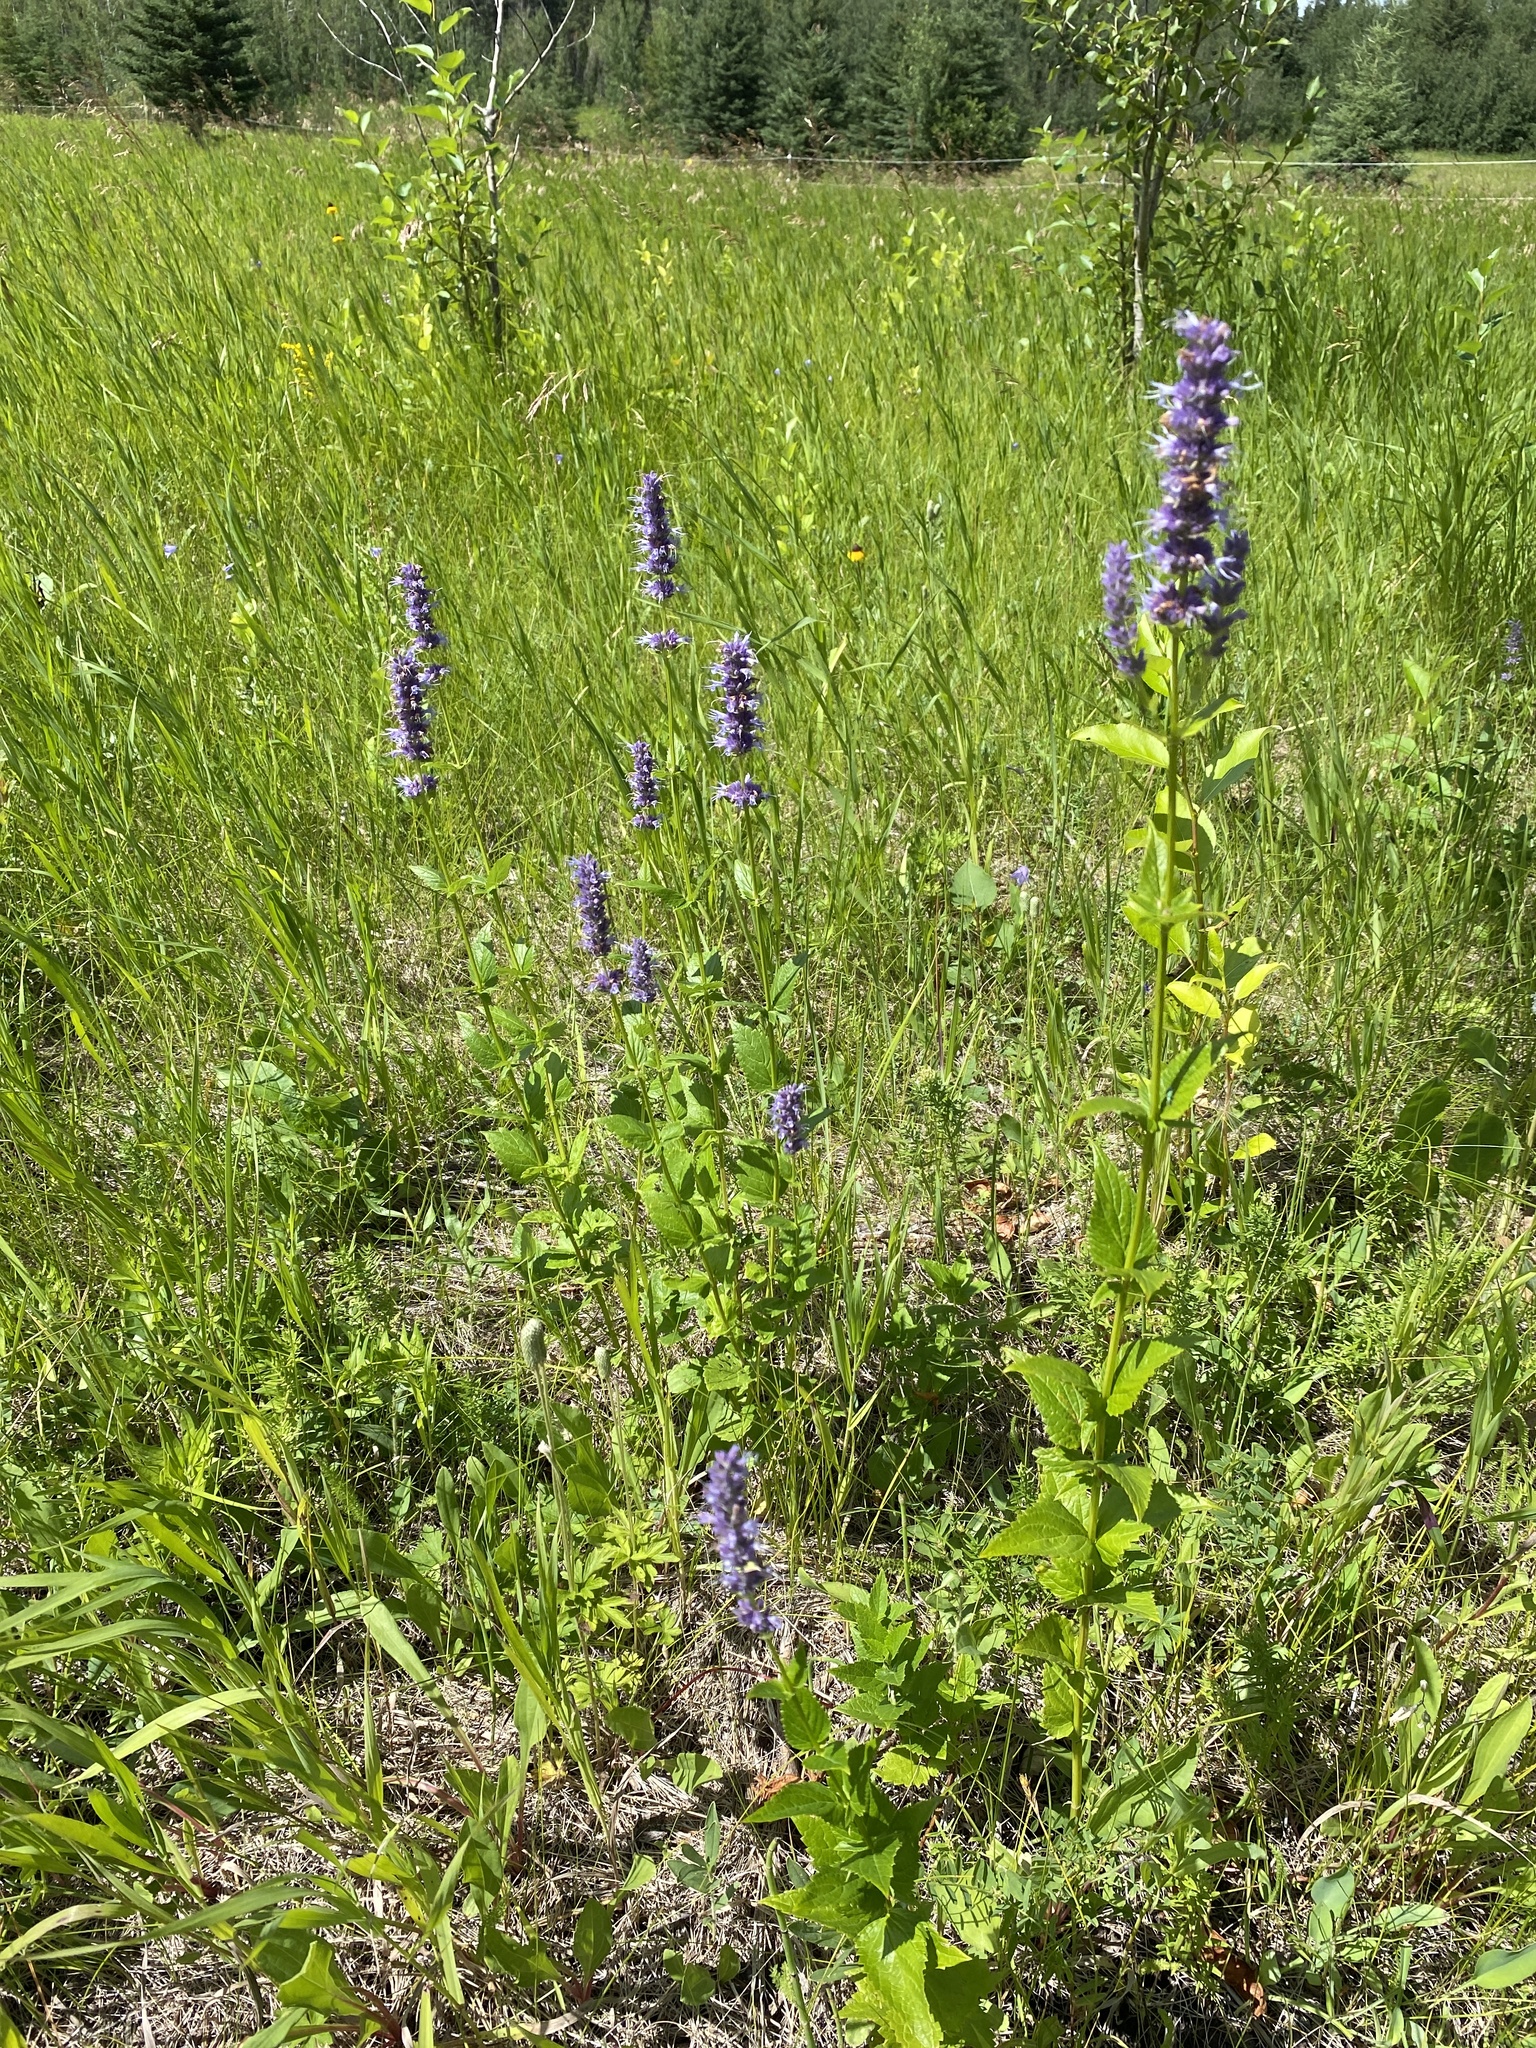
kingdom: Plantae
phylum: Tracheophyta
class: Magnoliopsida
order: Lamiales
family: Lamiaceae
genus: Agastache
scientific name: Agastache foeniculum
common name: Anise hyssop
